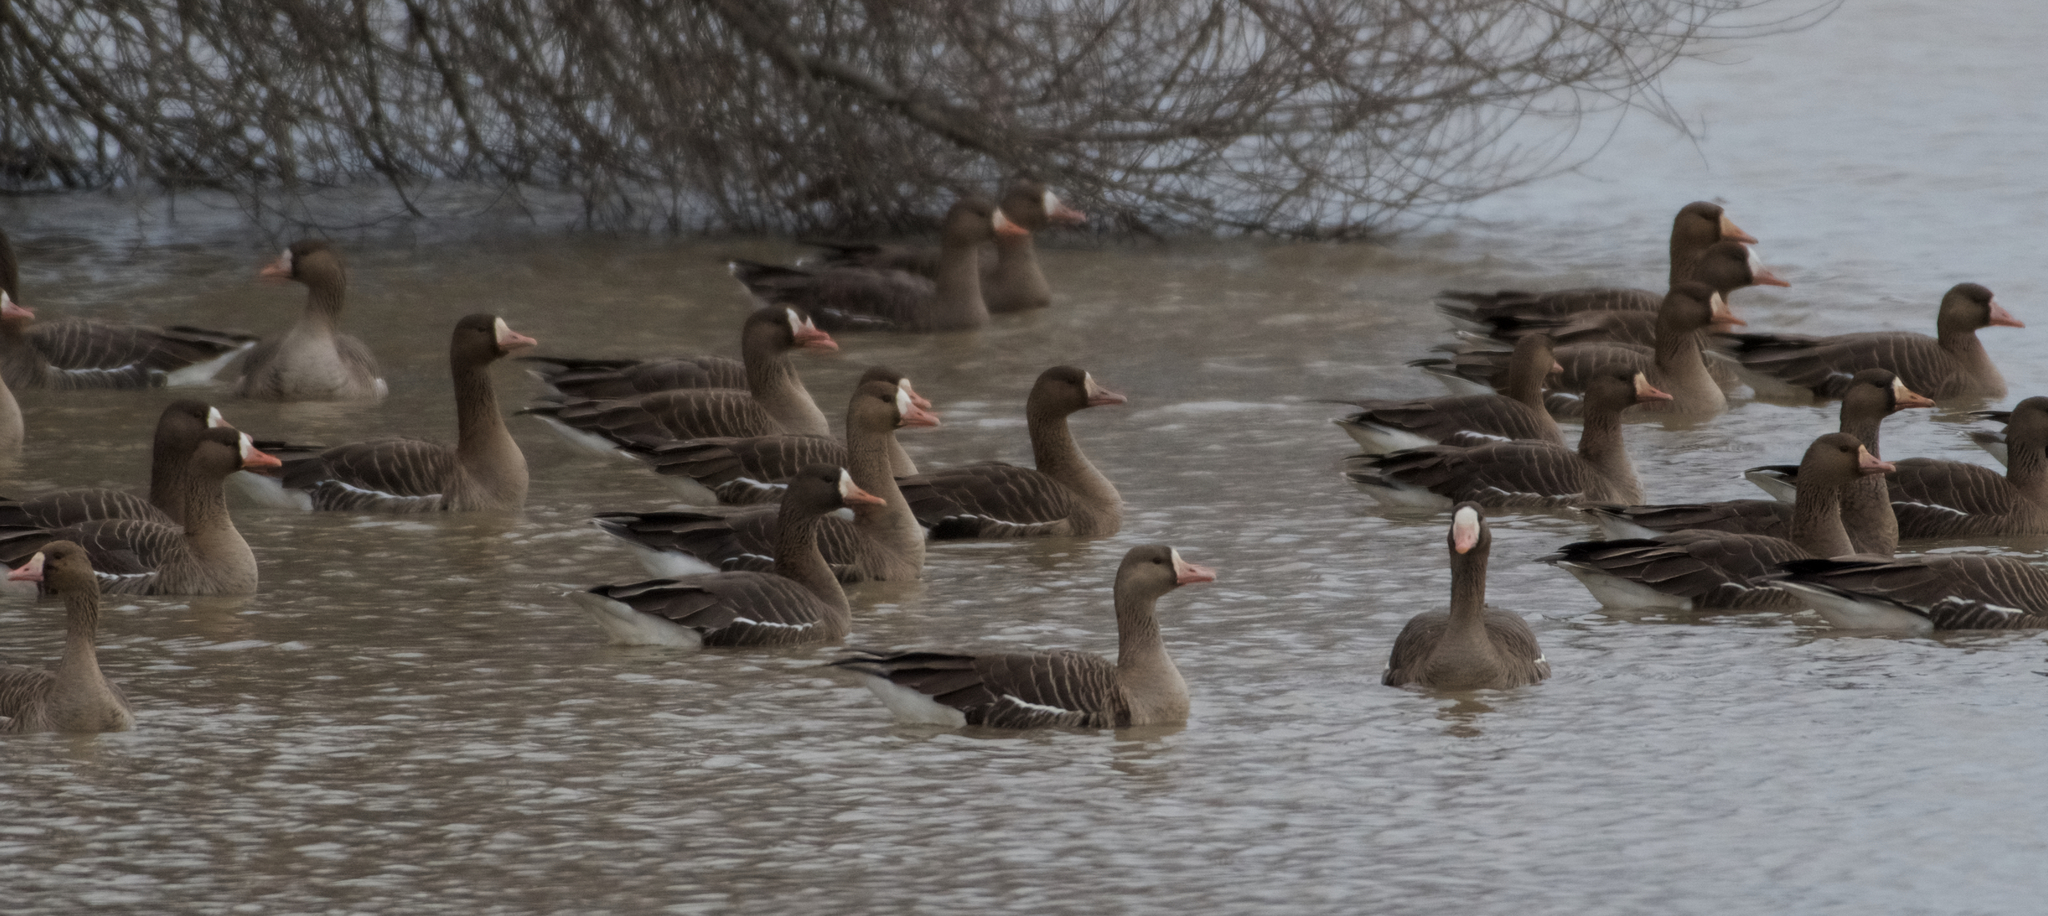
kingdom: Animalia
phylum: Chordata
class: Aves
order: Anseriformes
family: Anatidae
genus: Anser
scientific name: Anser albifrons
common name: Greater white-fronted goose
